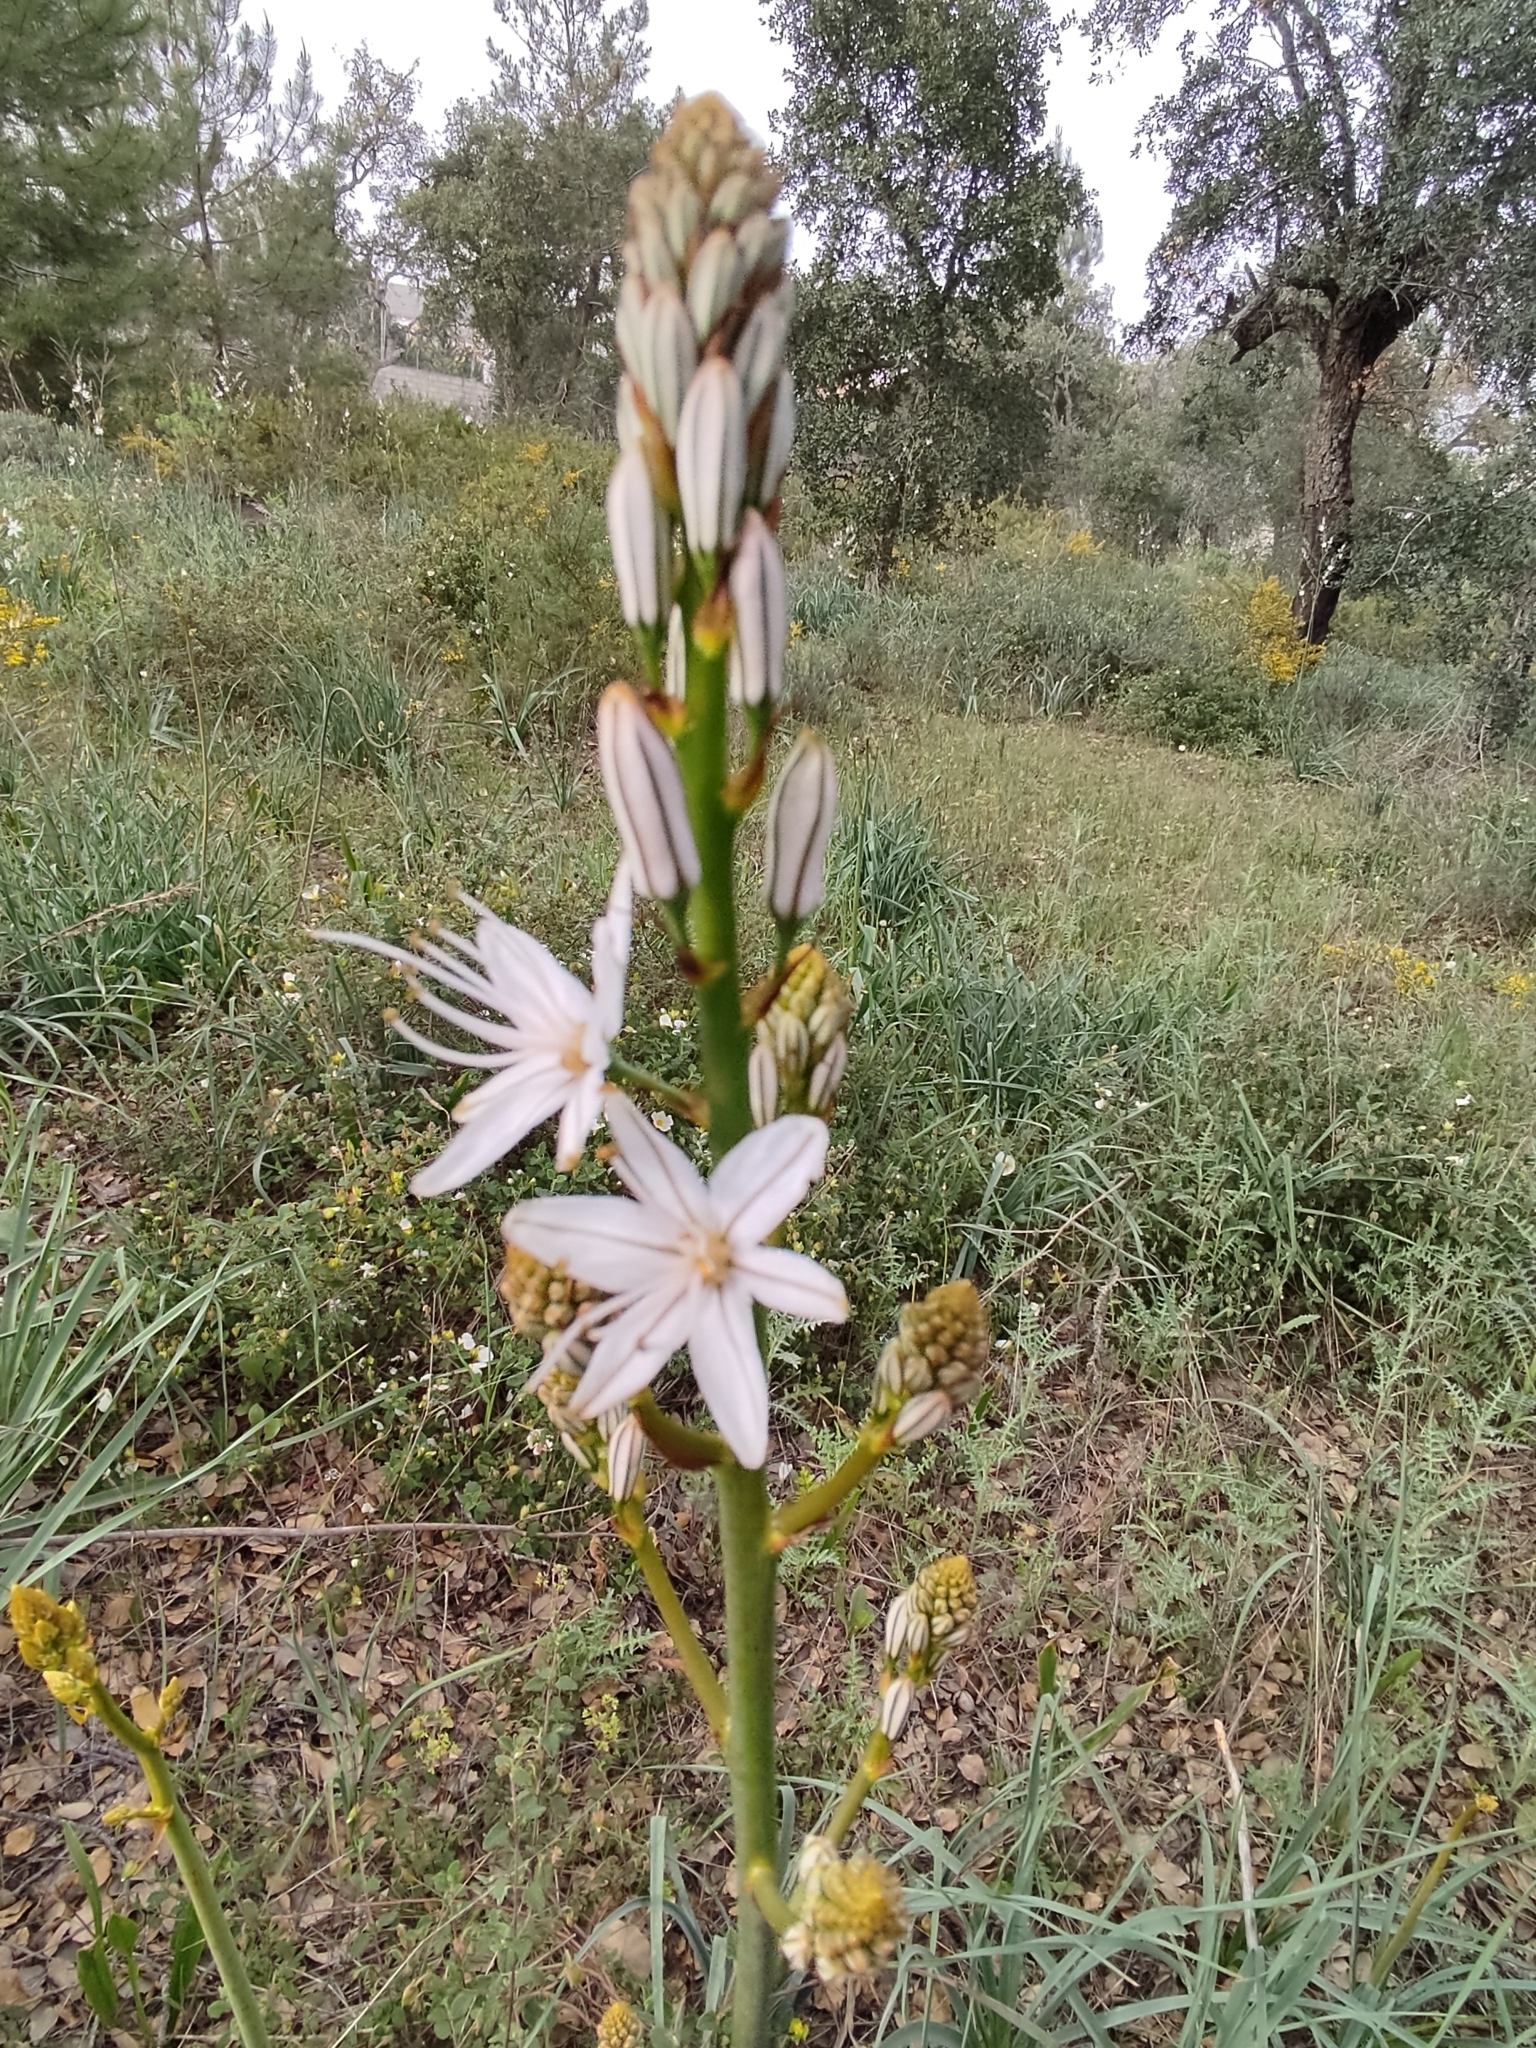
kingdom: Plantae
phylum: Tracheophyta
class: Liliopsida
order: Asparagales
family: Asphodelaceae
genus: Asphodelus
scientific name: Asphodelus lusitanicus
